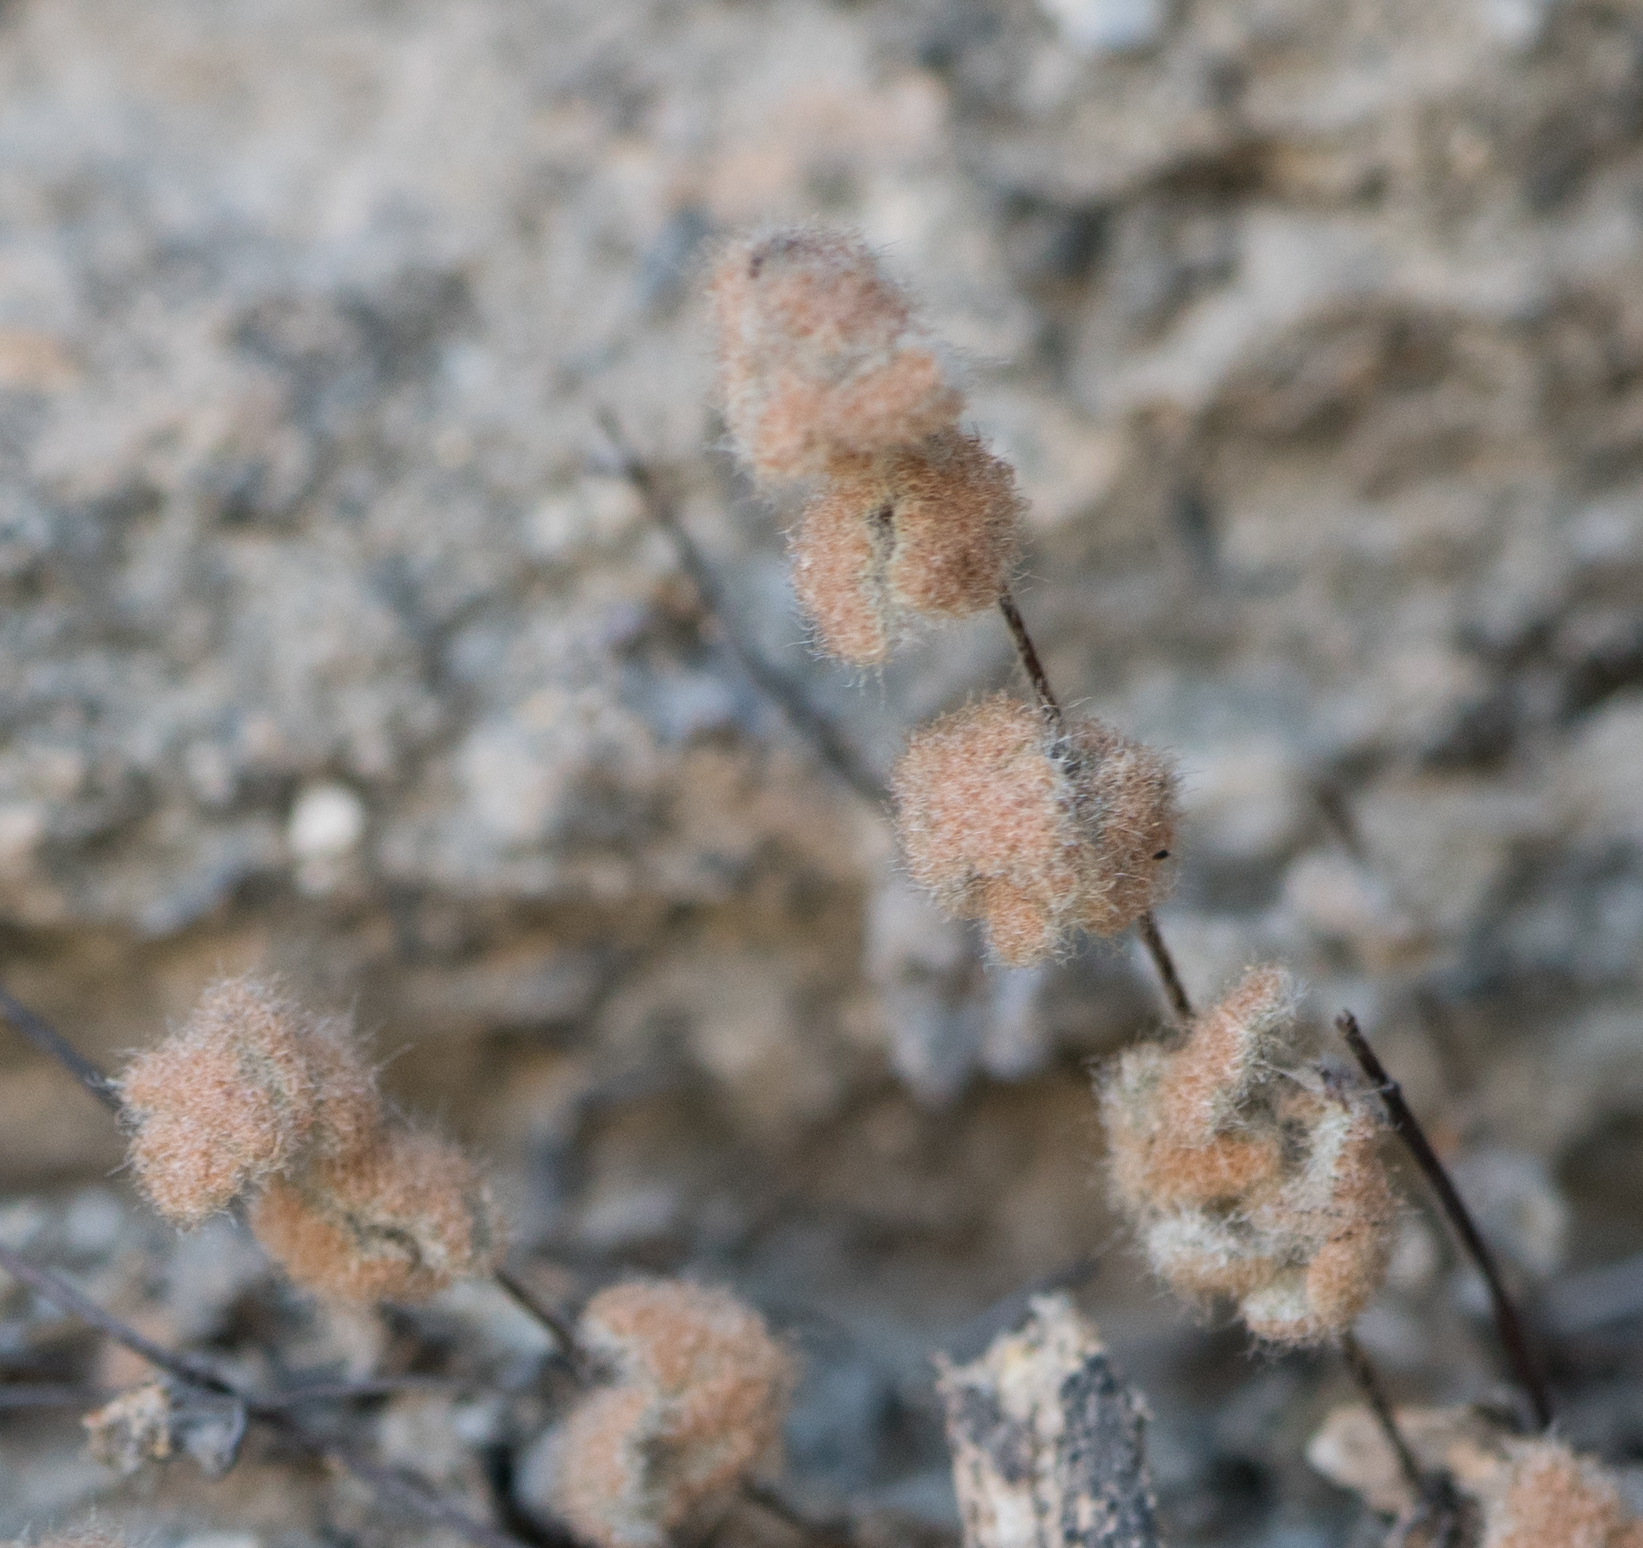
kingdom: Plantae
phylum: Tracheophyta
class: Polypodiopsida
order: Polypodiales
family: Pteridaceae
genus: Myriopteris
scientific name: Myriopteris parryi
